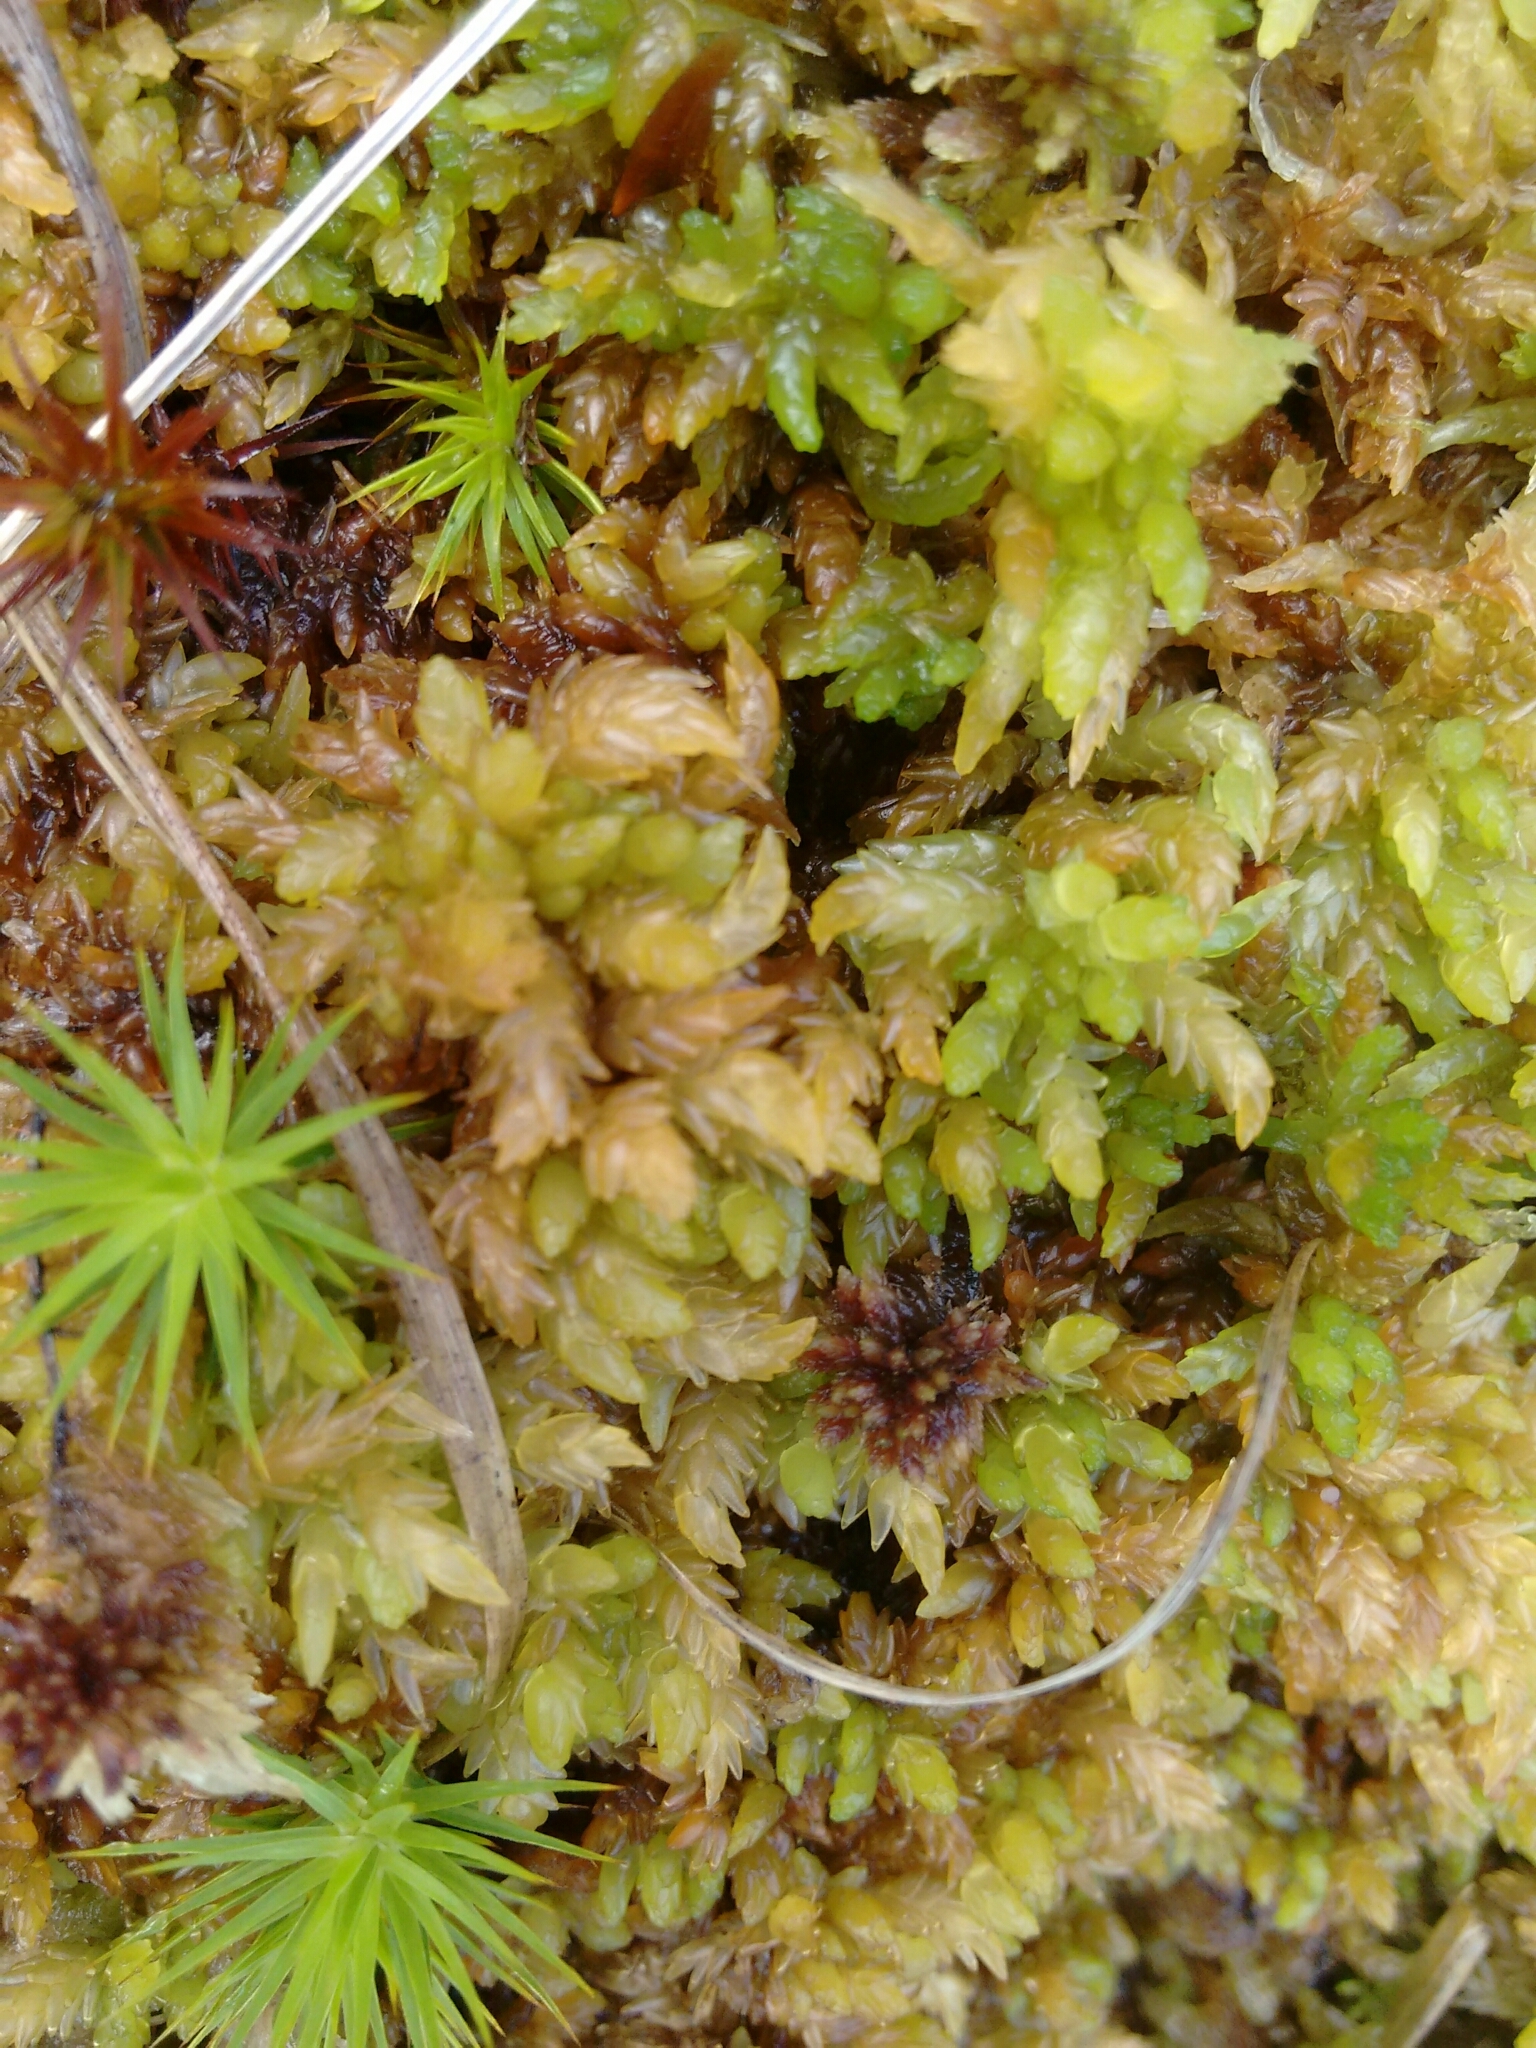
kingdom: Plantae
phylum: Bryophyta
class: Sphagnopsida
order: Sphagnales
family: Sphagnaceae
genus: Sphagnum
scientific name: Sphagnum denticulatum
